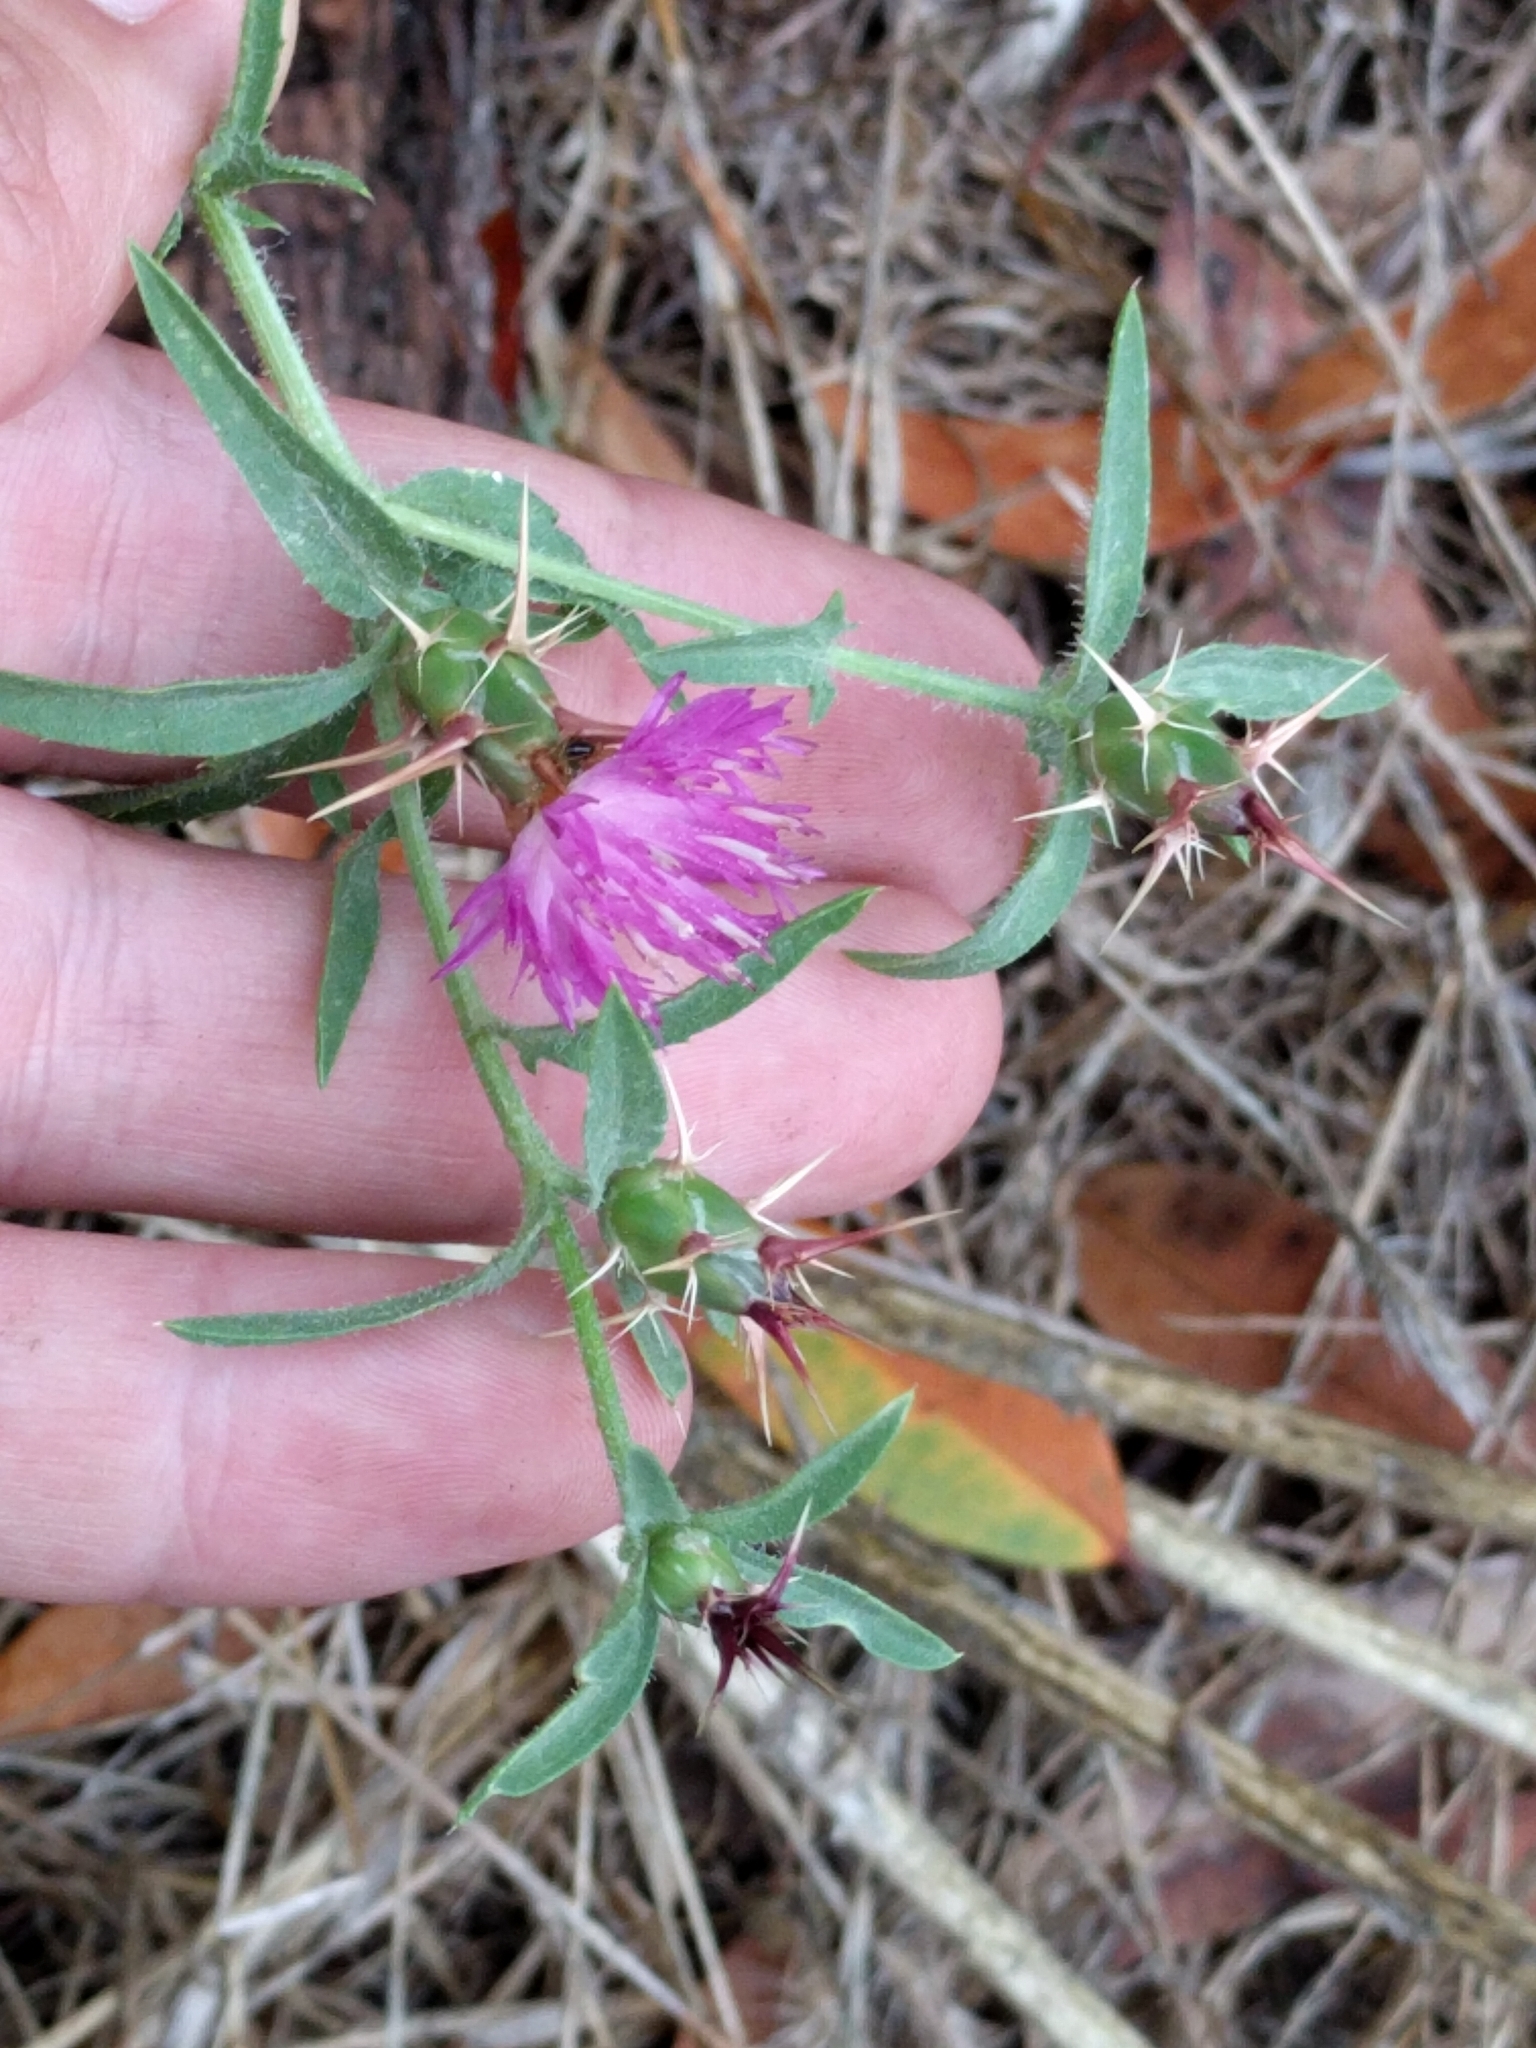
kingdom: Plantae
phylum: Tracheophyta
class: Magnoliopsida
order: Asterales
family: Asteraceae
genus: Centaurea
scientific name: Centaurea calcitrapa
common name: Red star-thistle
